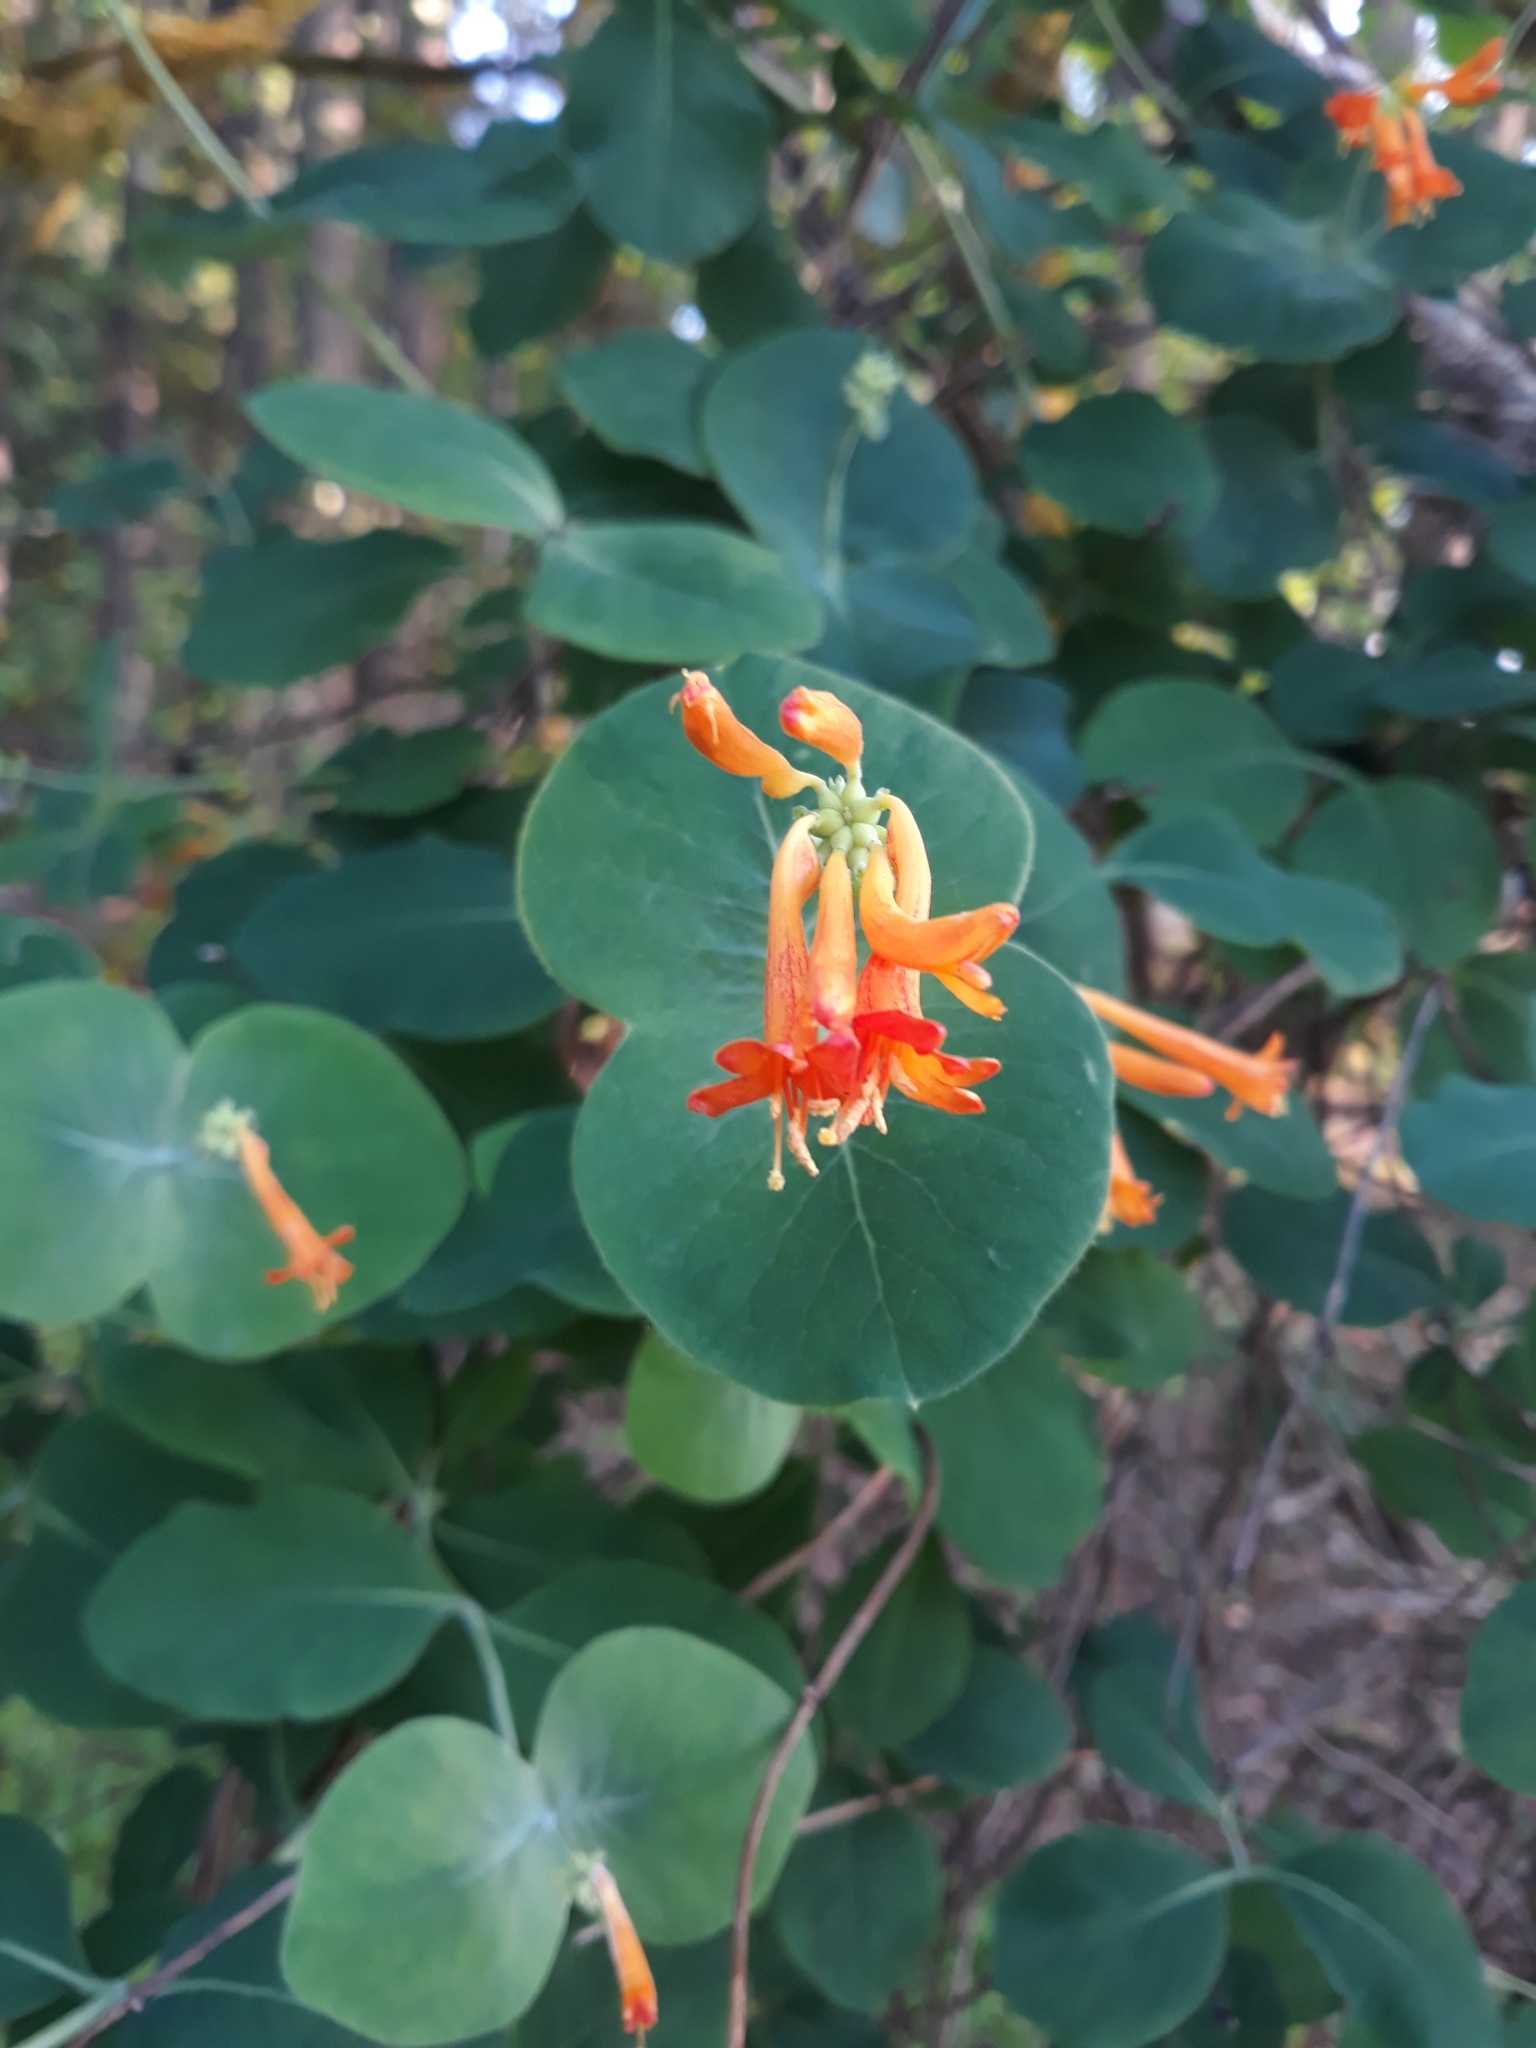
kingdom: Plantae
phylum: Tracheophyta
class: Magnoliopsida
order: Dipsacales
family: Caprifoliaceae
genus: Lonicera
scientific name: Lonicera ciliosa
